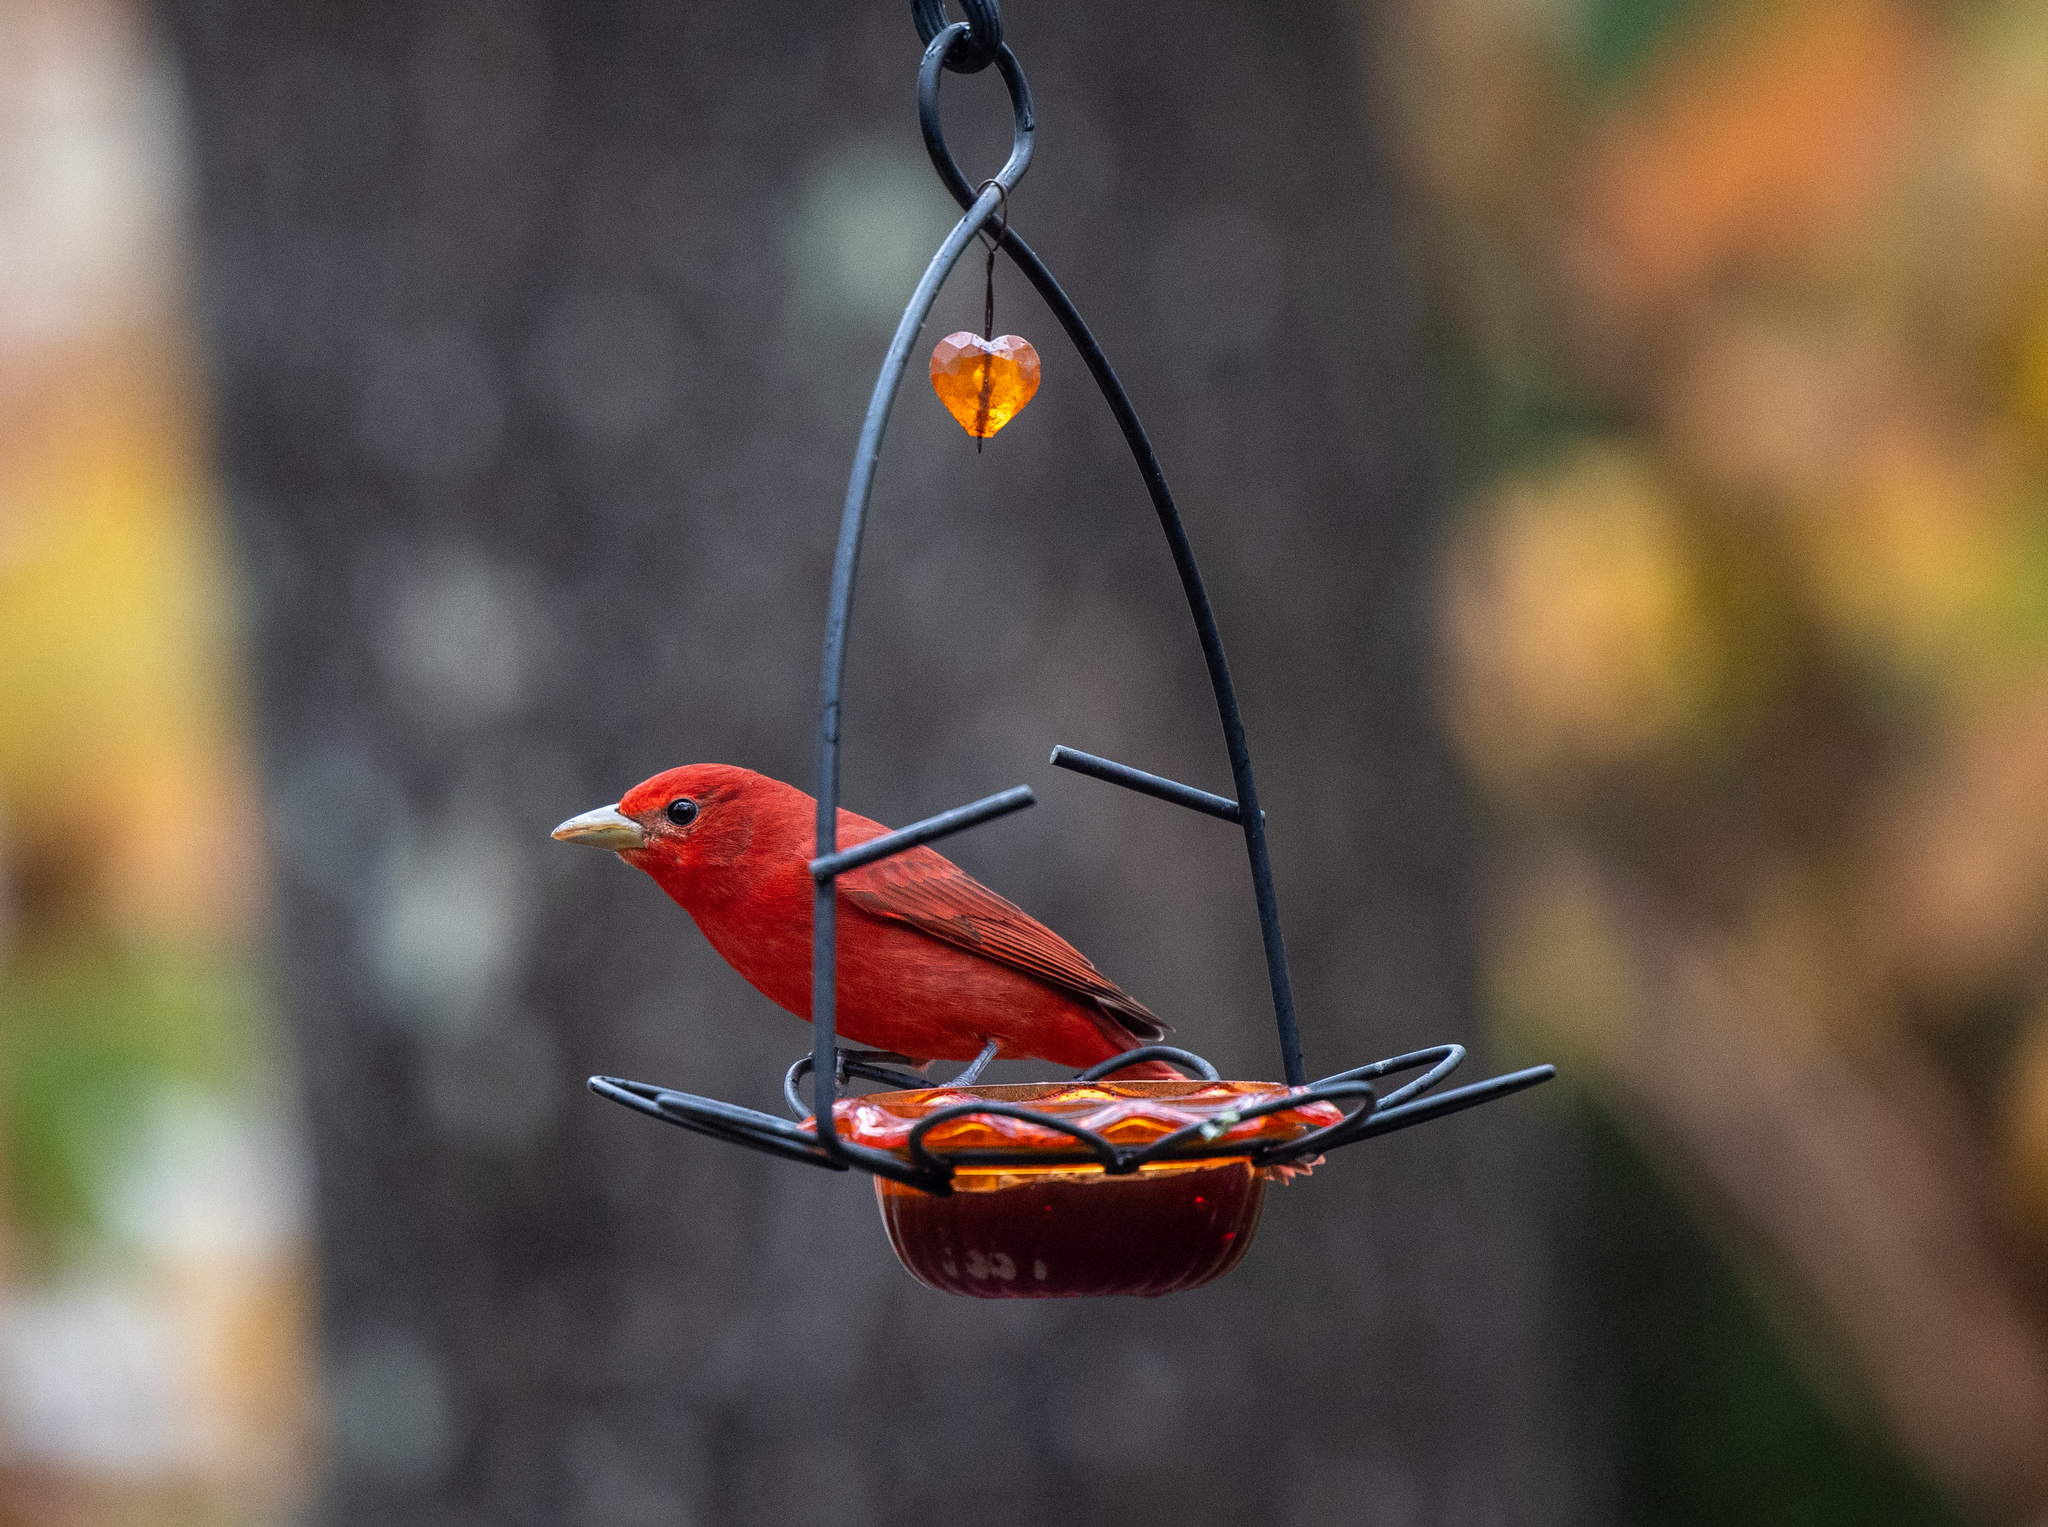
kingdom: Animalia
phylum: Chordata
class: Aves
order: Passeriformes
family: Cardinalidae
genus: Piranga
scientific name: Piranga rubra
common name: Summer tanager
